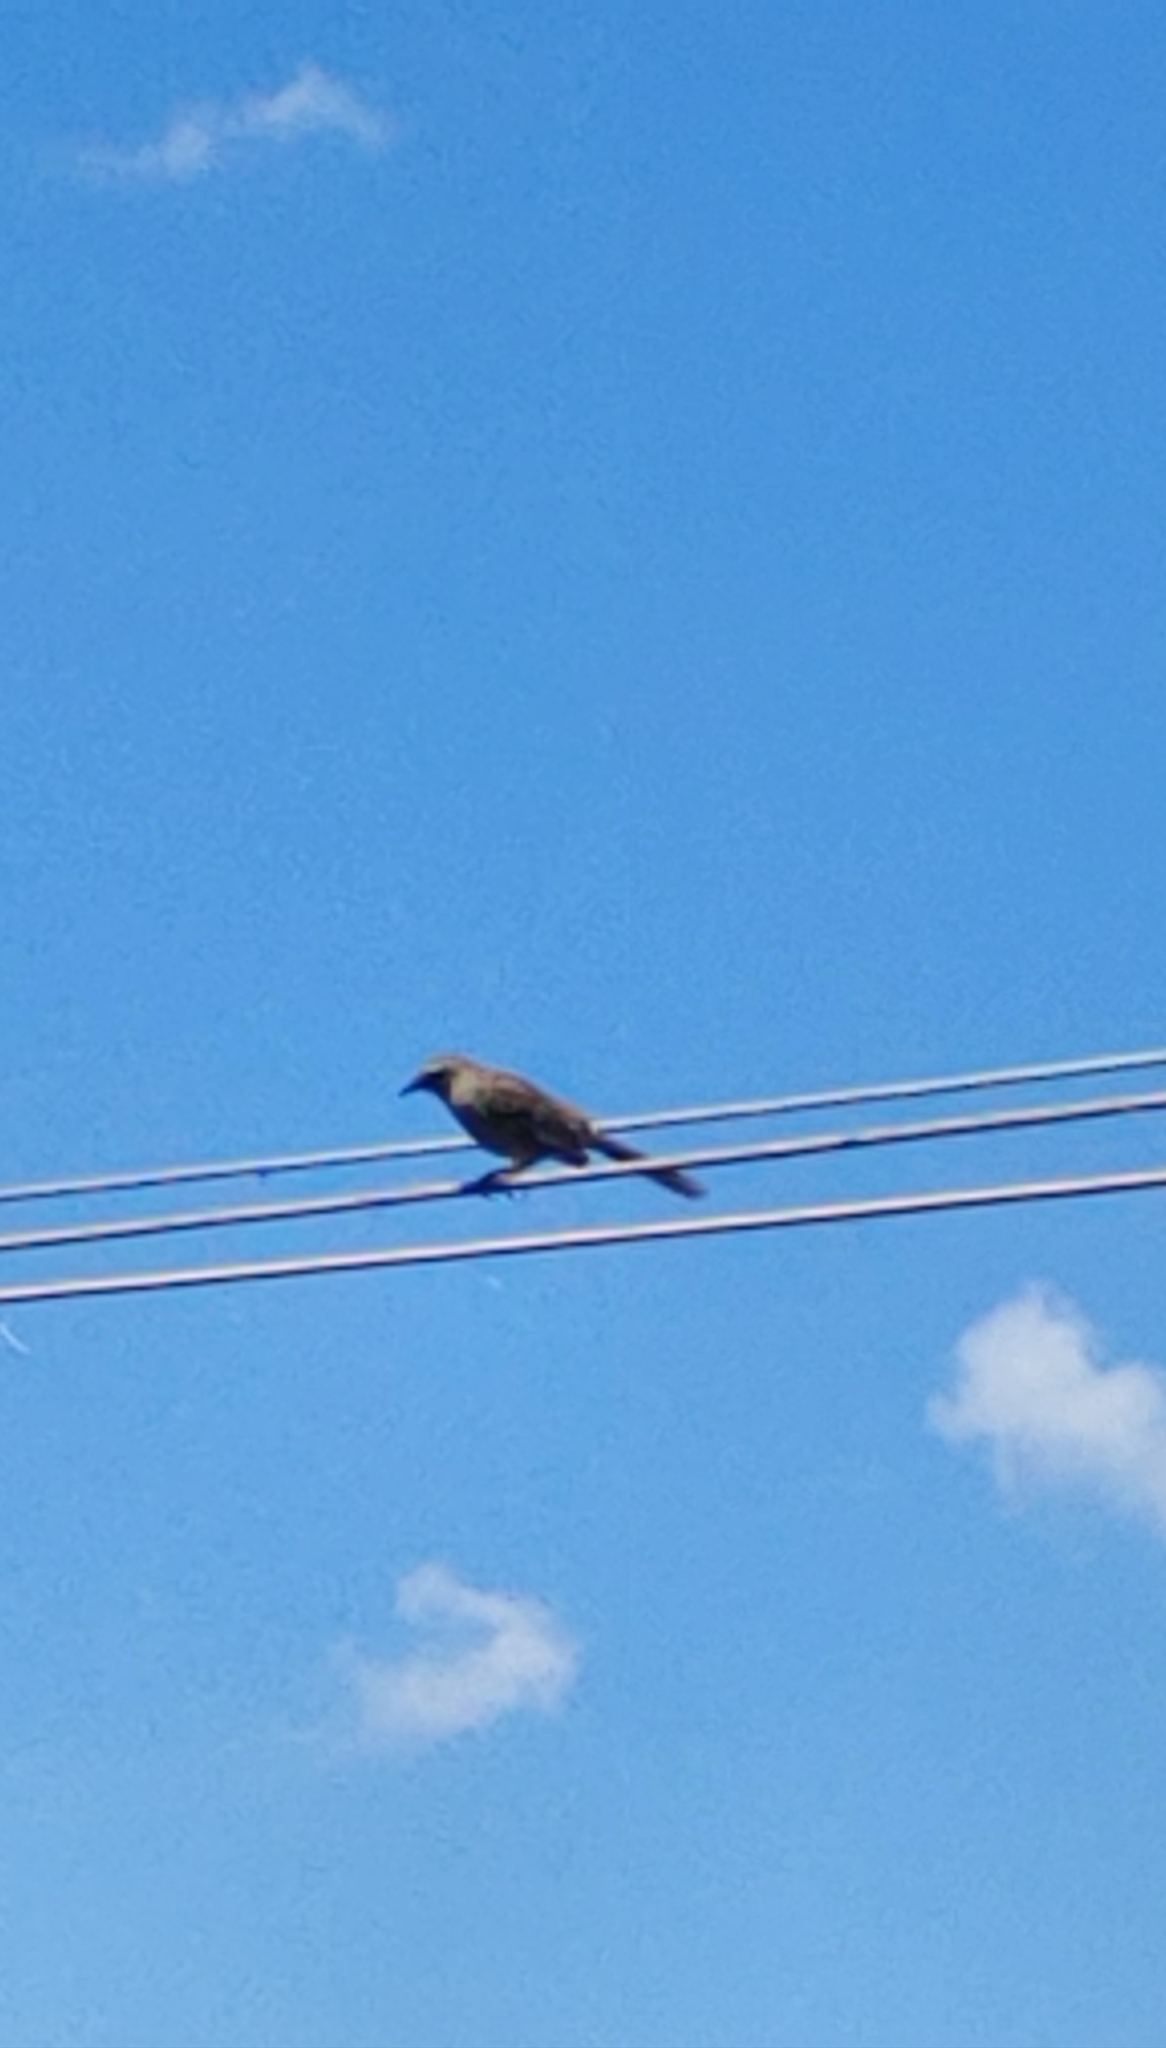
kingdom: Animalia
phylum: Chordata
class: Aves
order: Passeriformes
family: Mimidae
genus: Mimus
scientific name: Mimus saturninus
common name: Chalk-browed mockingbird
